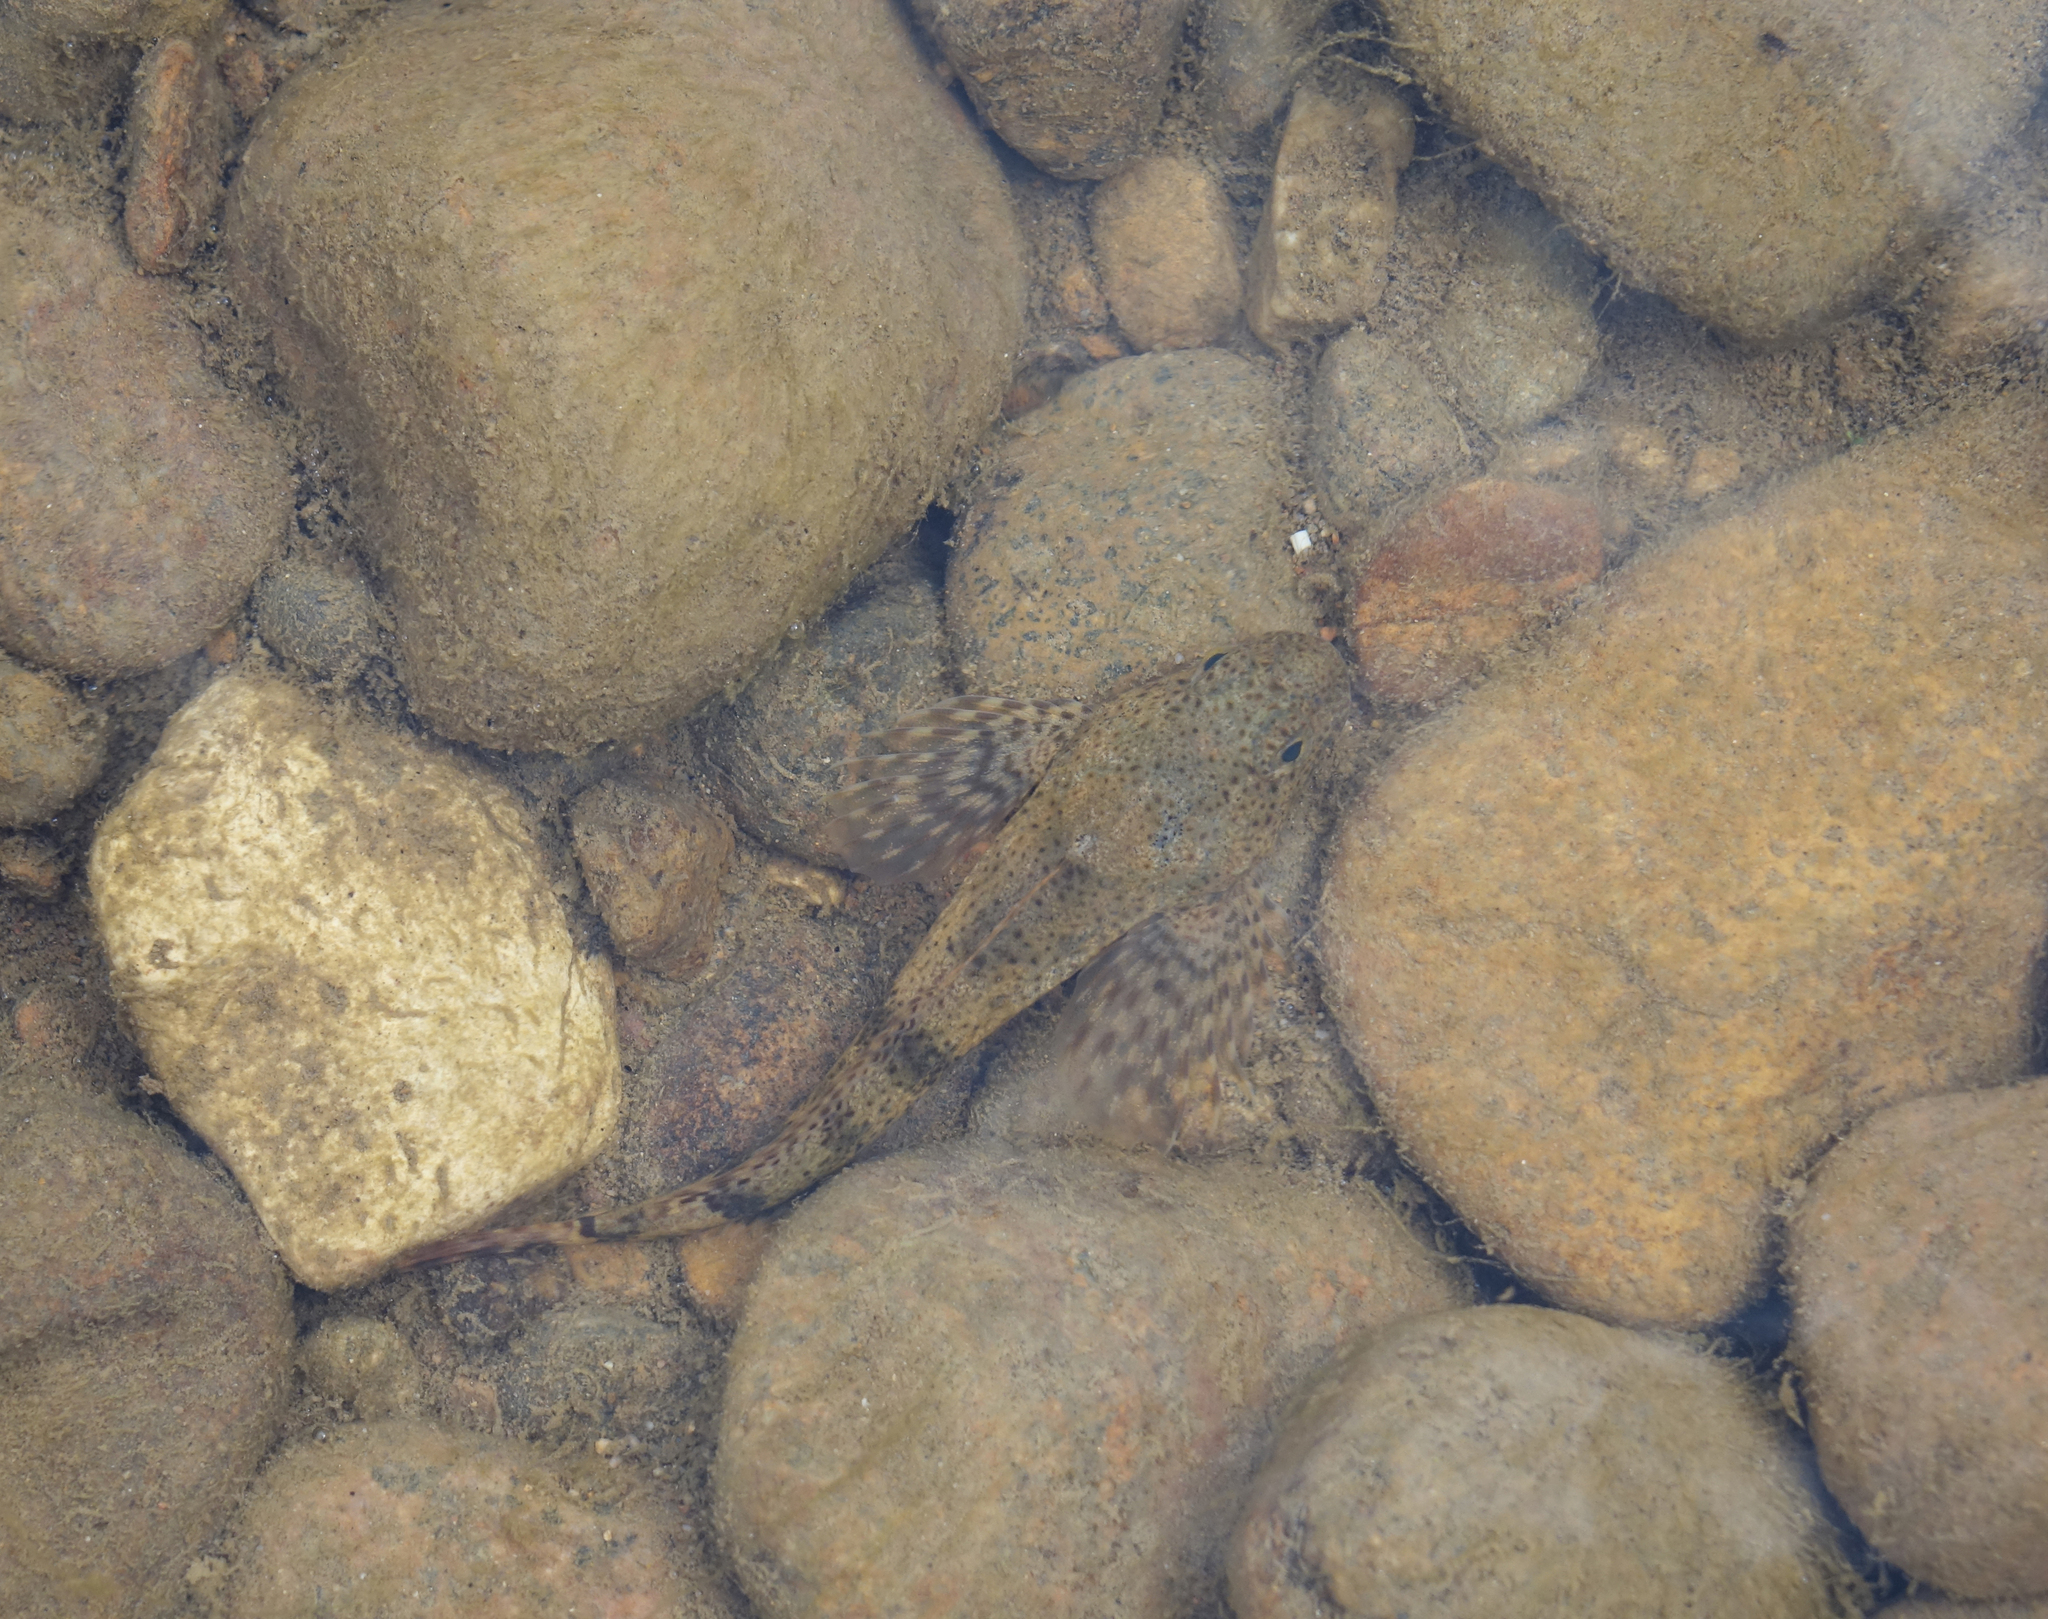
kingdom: Animalia
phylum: Chordata
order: Scorpaeniformes
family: Cottidae
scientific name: Cottidae
